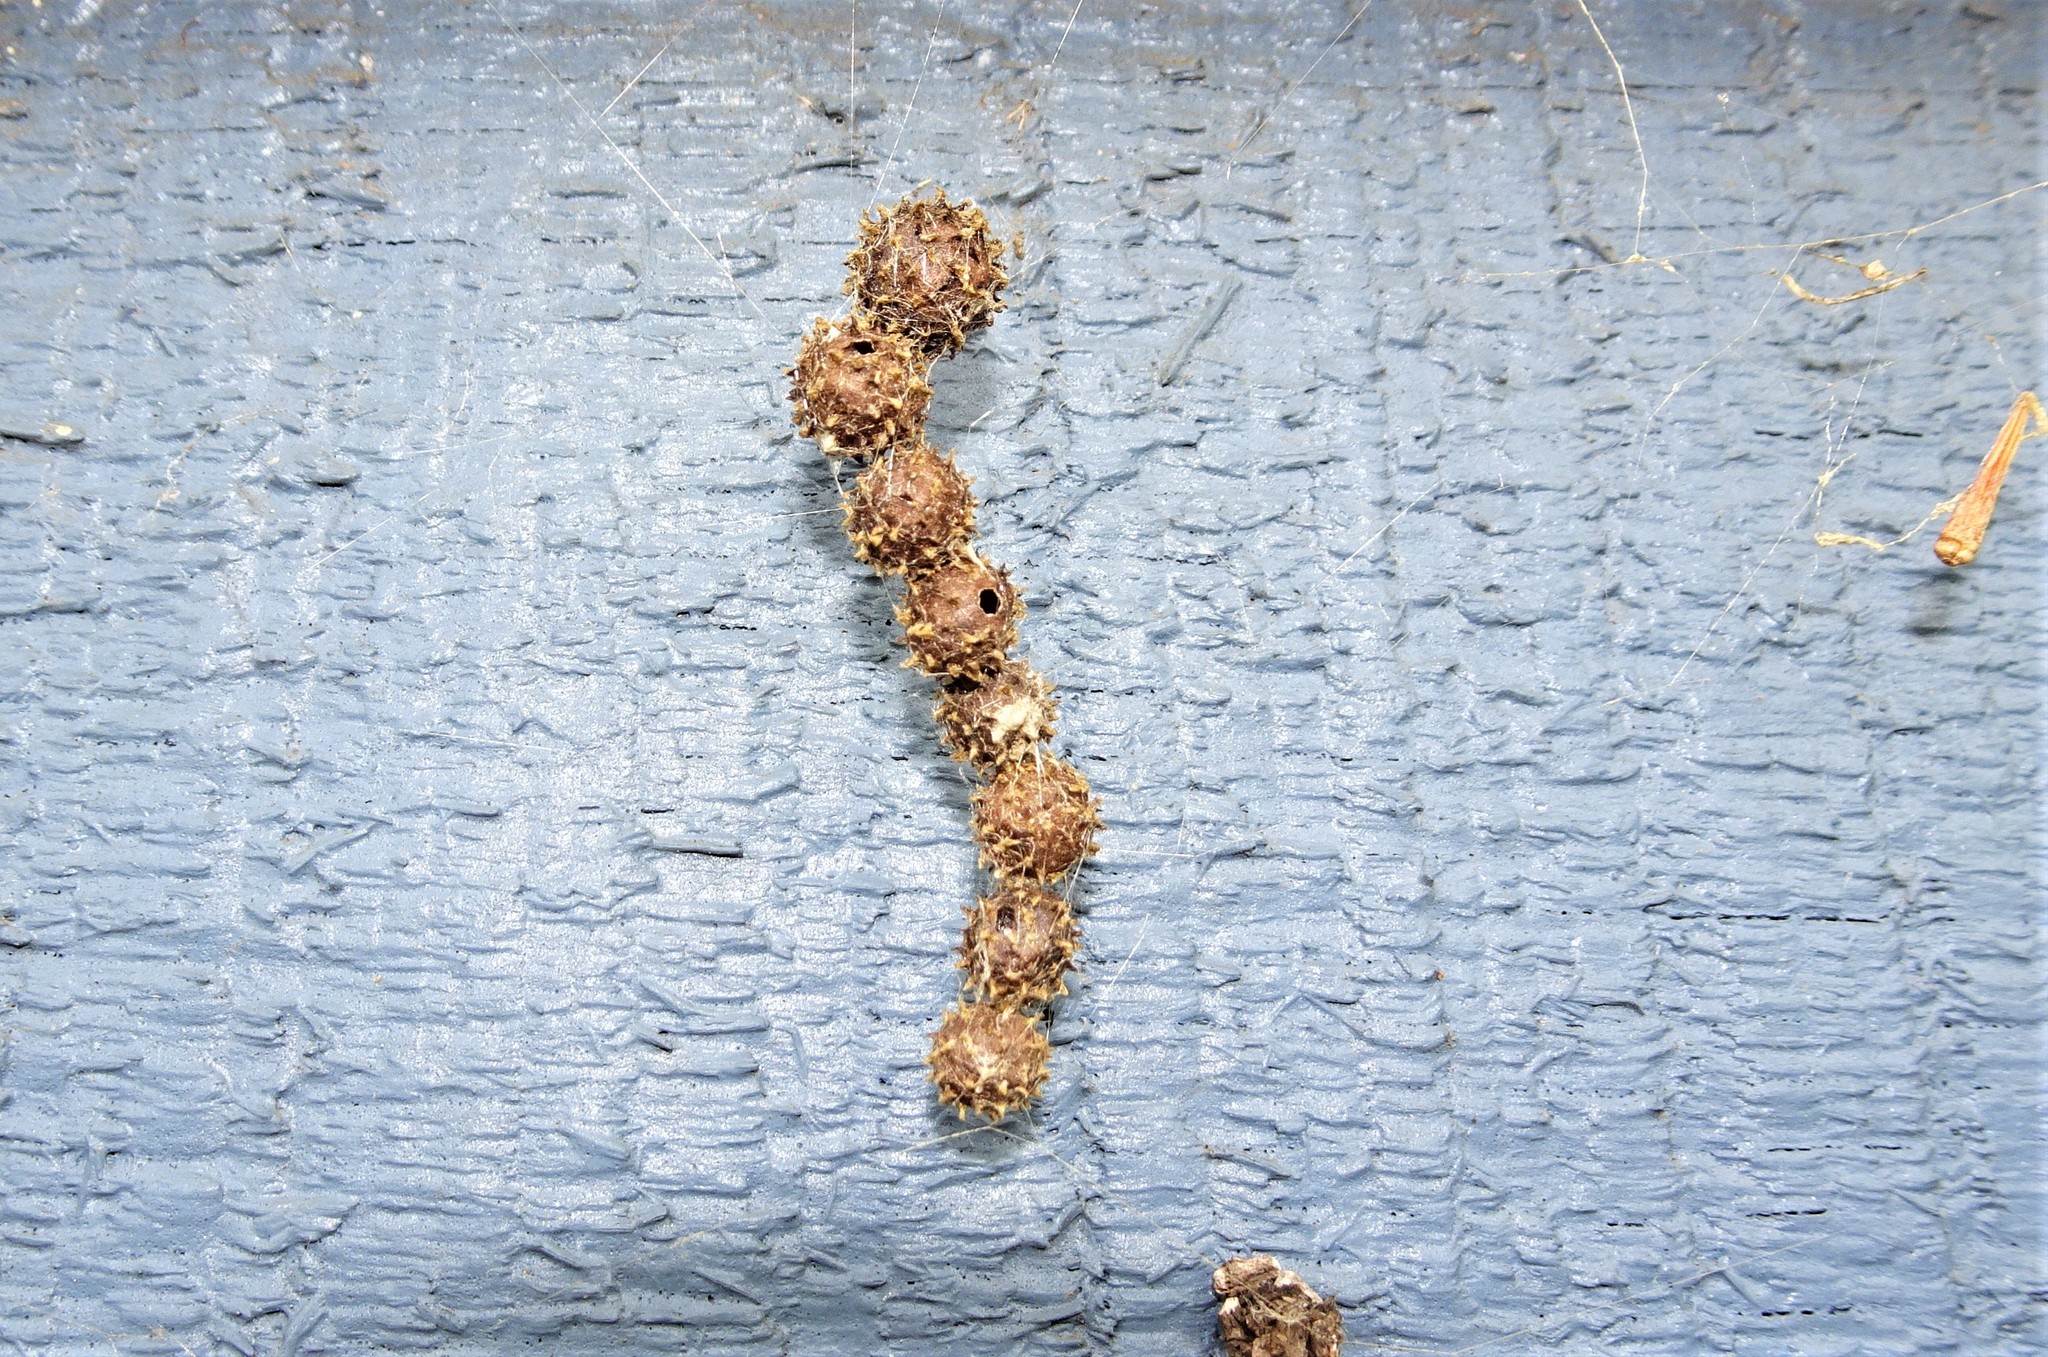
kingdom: Animalia
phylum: Arthropoda
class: Arachnida
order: Araneae
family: Araneidae
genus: Celaenia
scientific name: Celaenia calotoides
